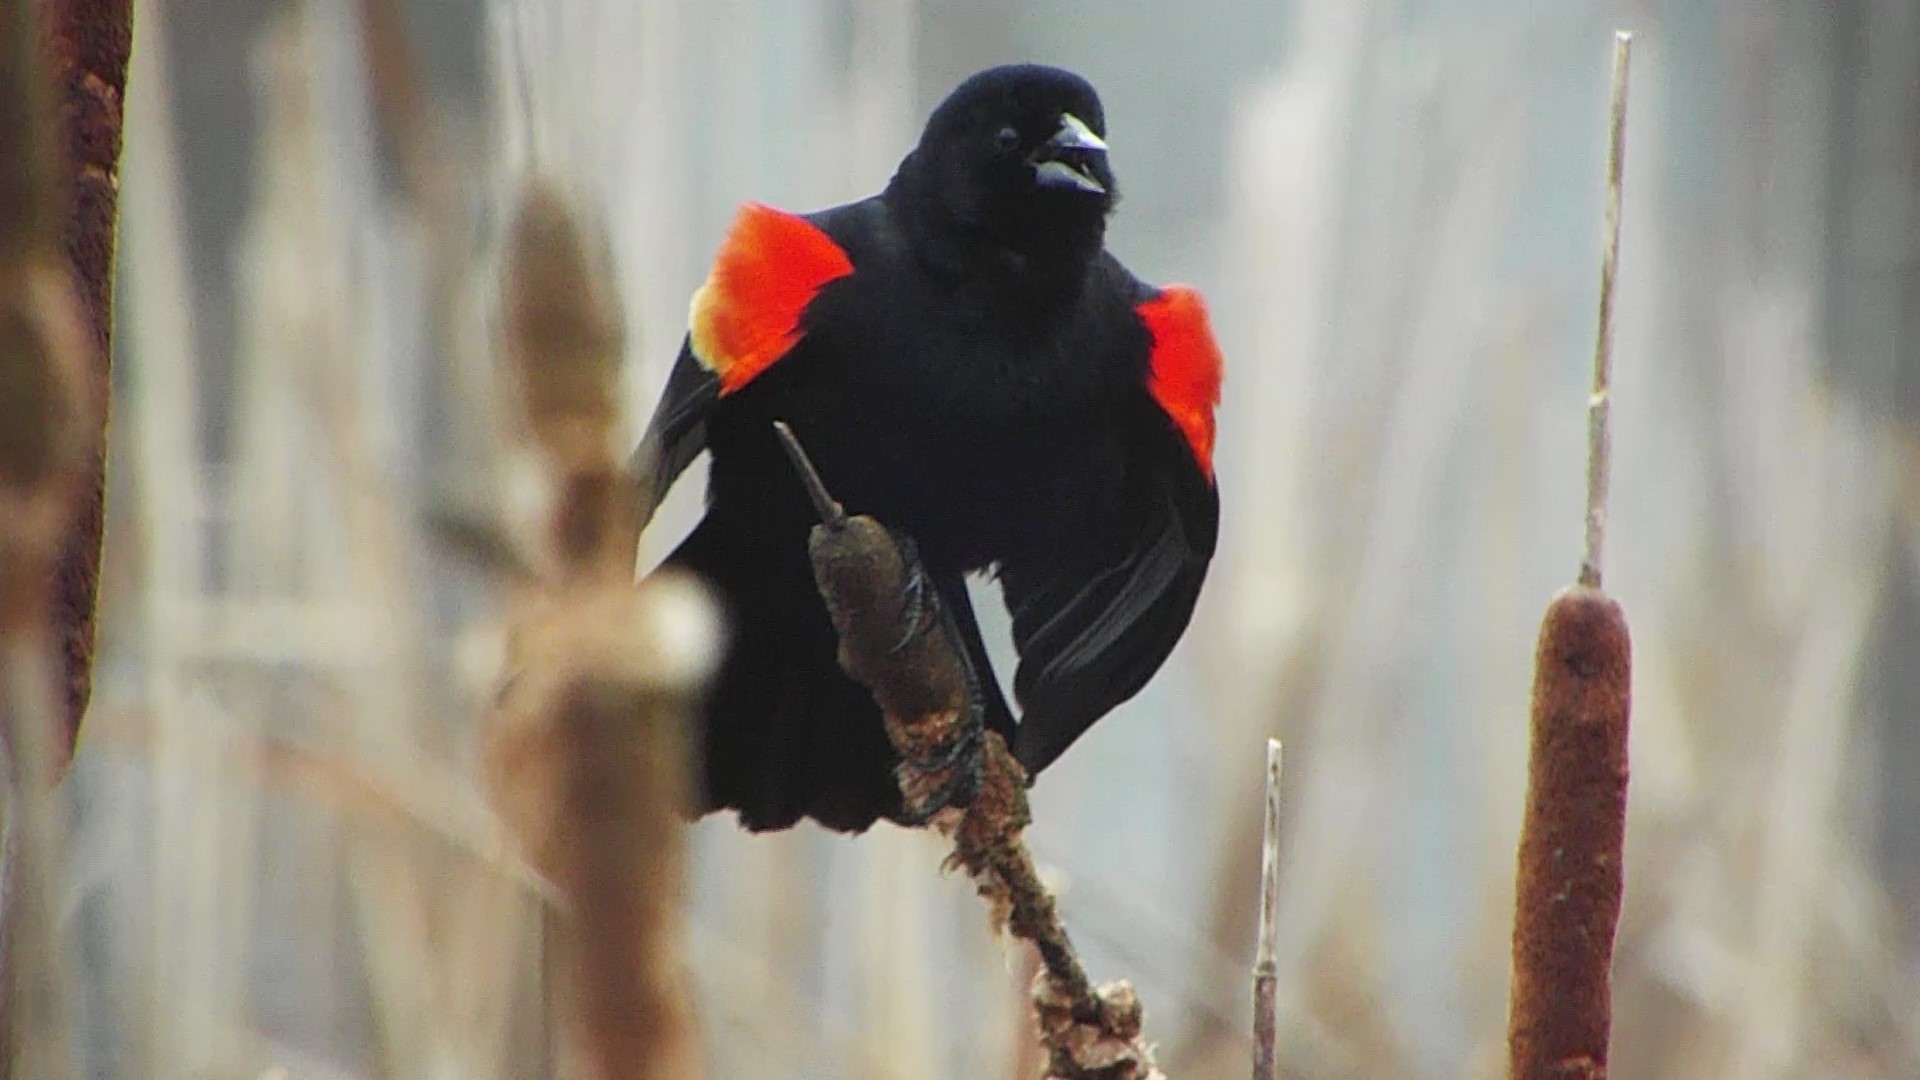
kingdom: Animalia
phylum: Chordata
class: Aves
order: Passeriformes
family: Icteridae
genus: Agelaius
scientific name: Agelaius phoeniceus
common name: Red-winged blackbird
